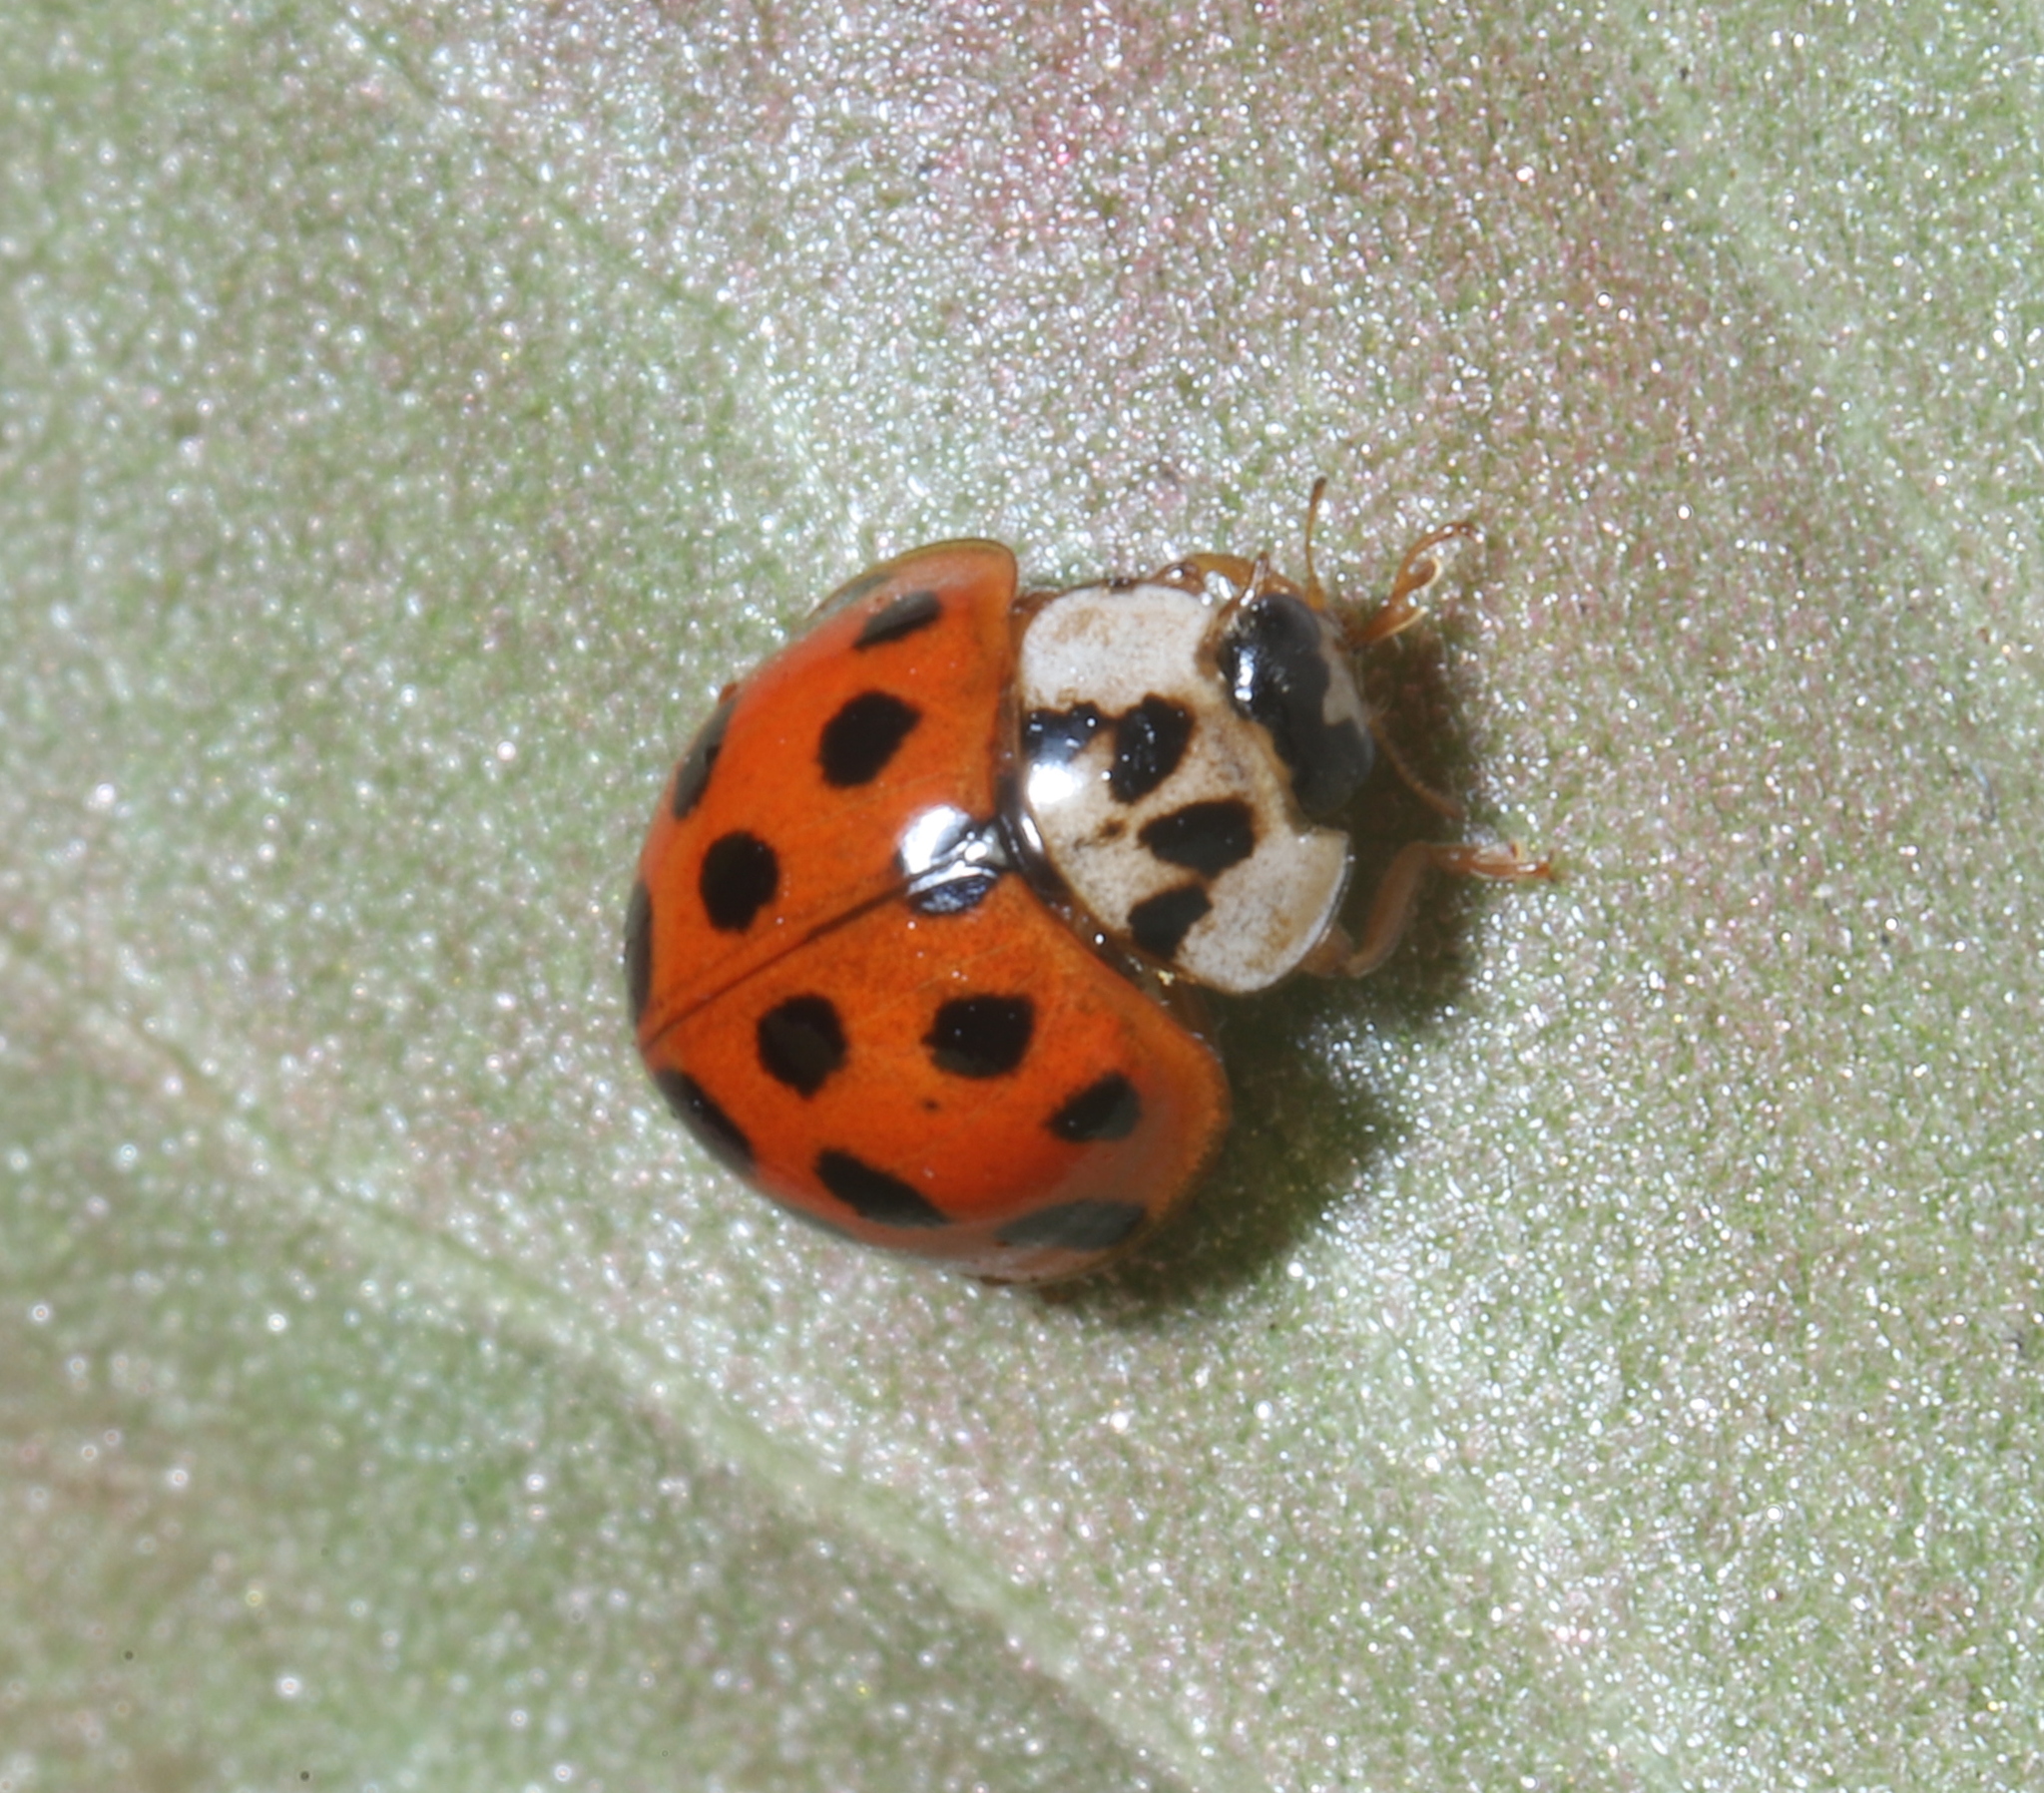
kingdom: Animalia
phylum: Arthropoda
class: Insecta
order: Coleoptera
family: Coccinellidae
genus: Harmonia
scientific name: Harmonia axyridis
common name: Harlequin ladybird
